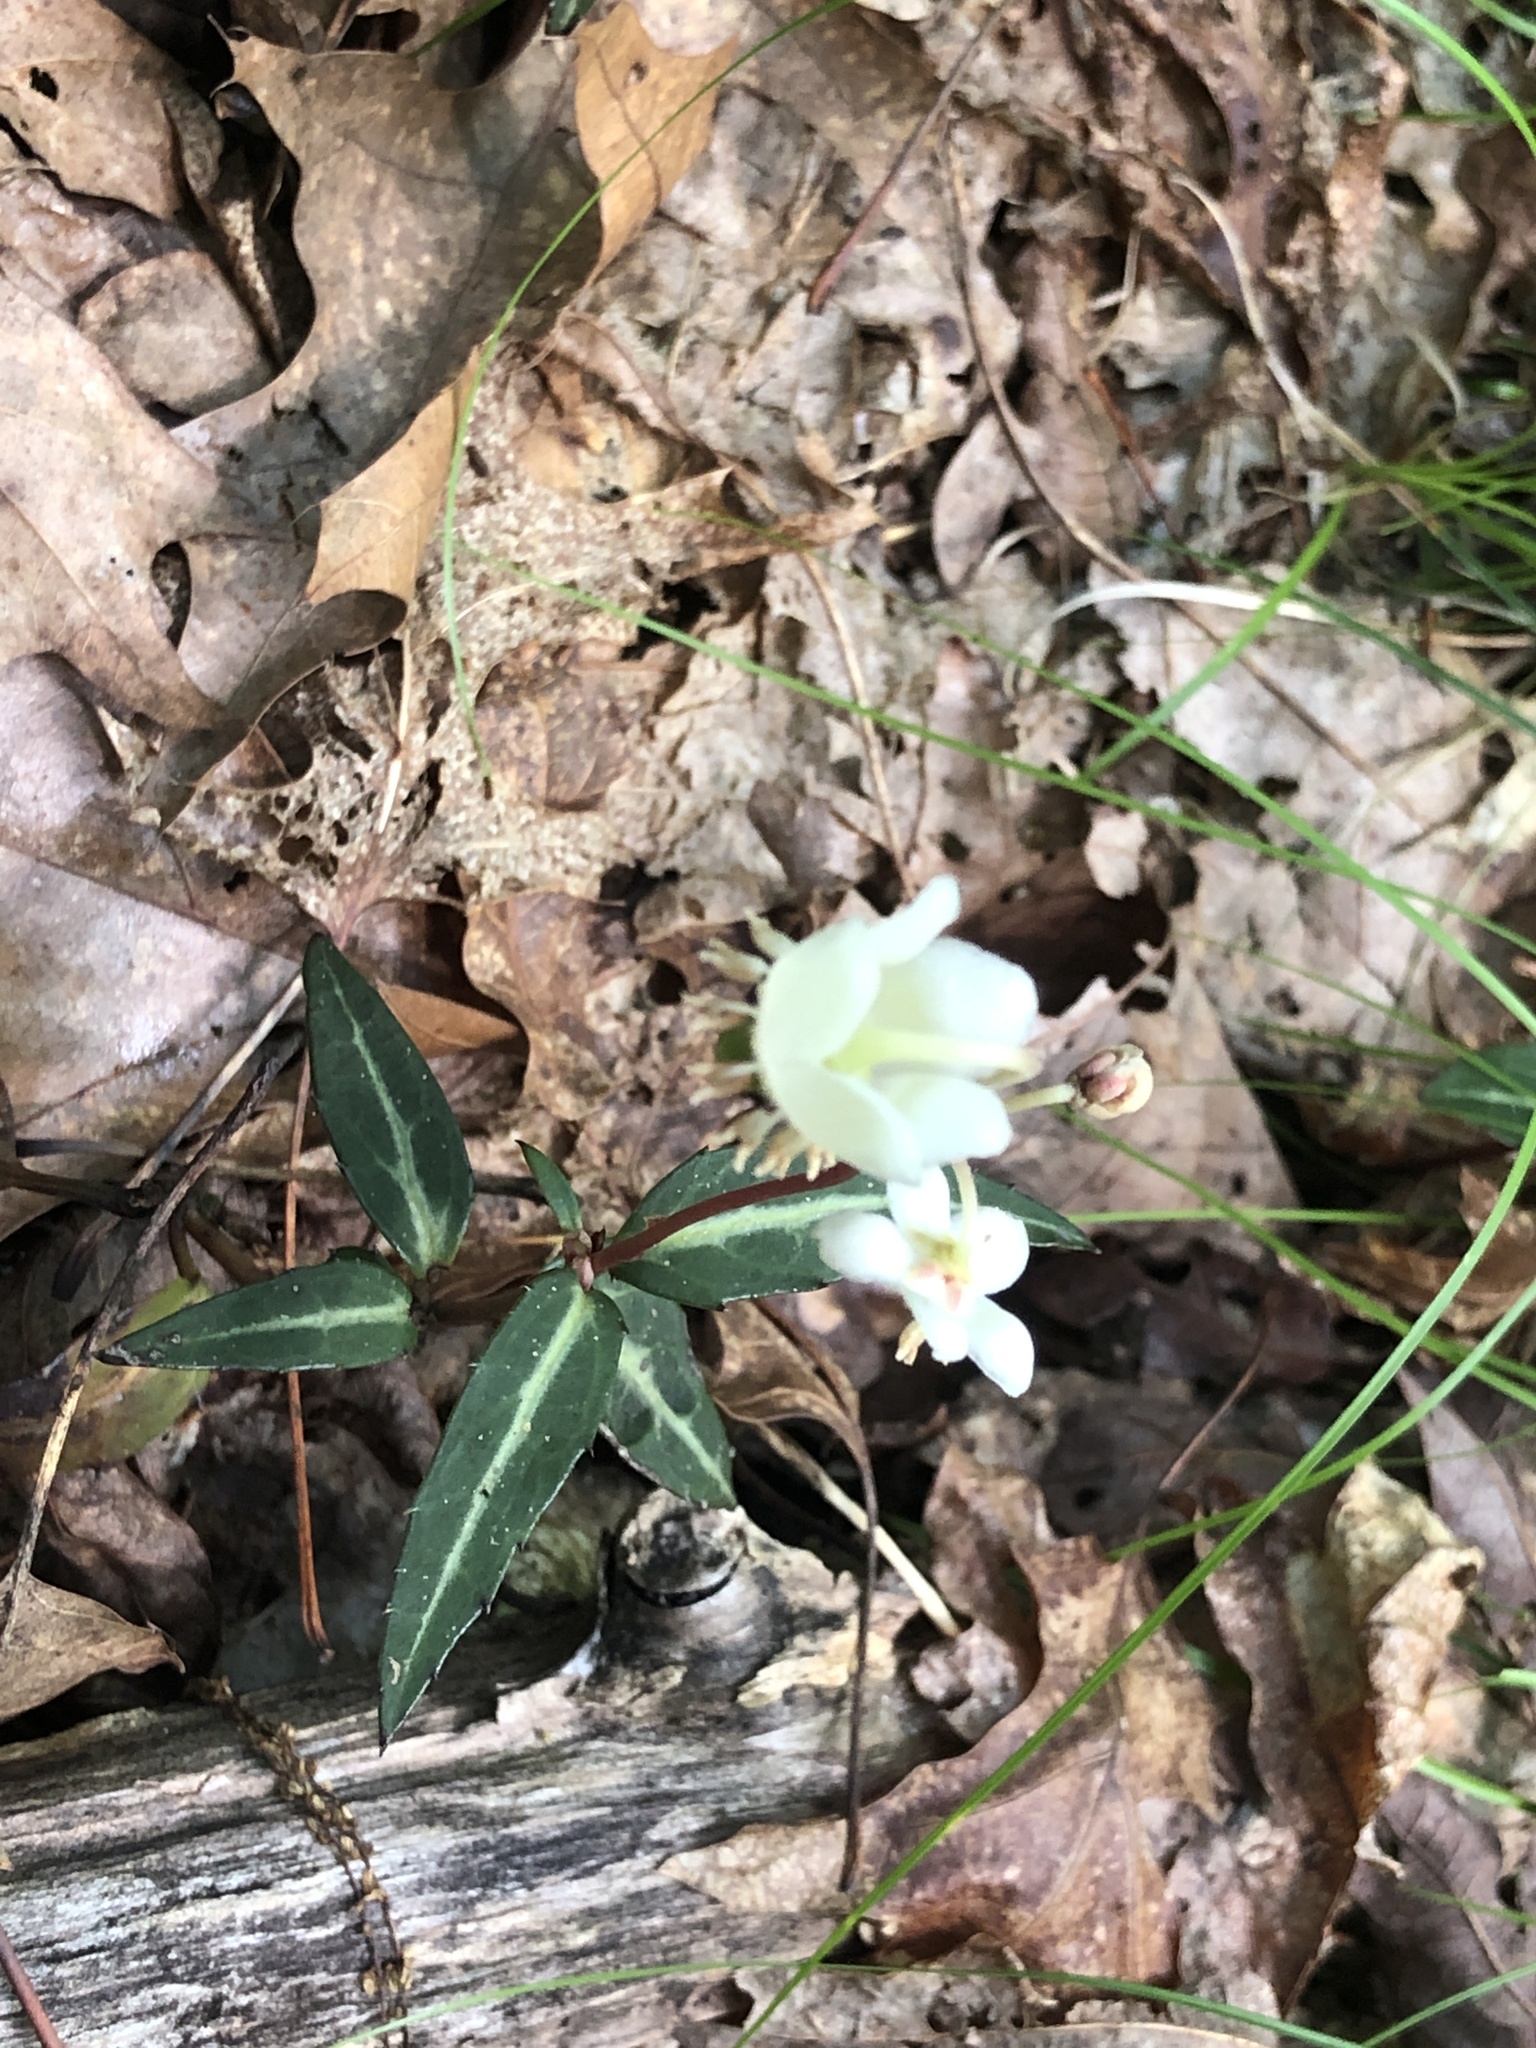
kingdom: Plantae
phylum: Tracheophyta
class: Magnoliopsida
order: Ericales
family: Ericaceae
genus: Chimaphila
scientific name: Chimaphila maculata
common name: Spotted pipsissewa
